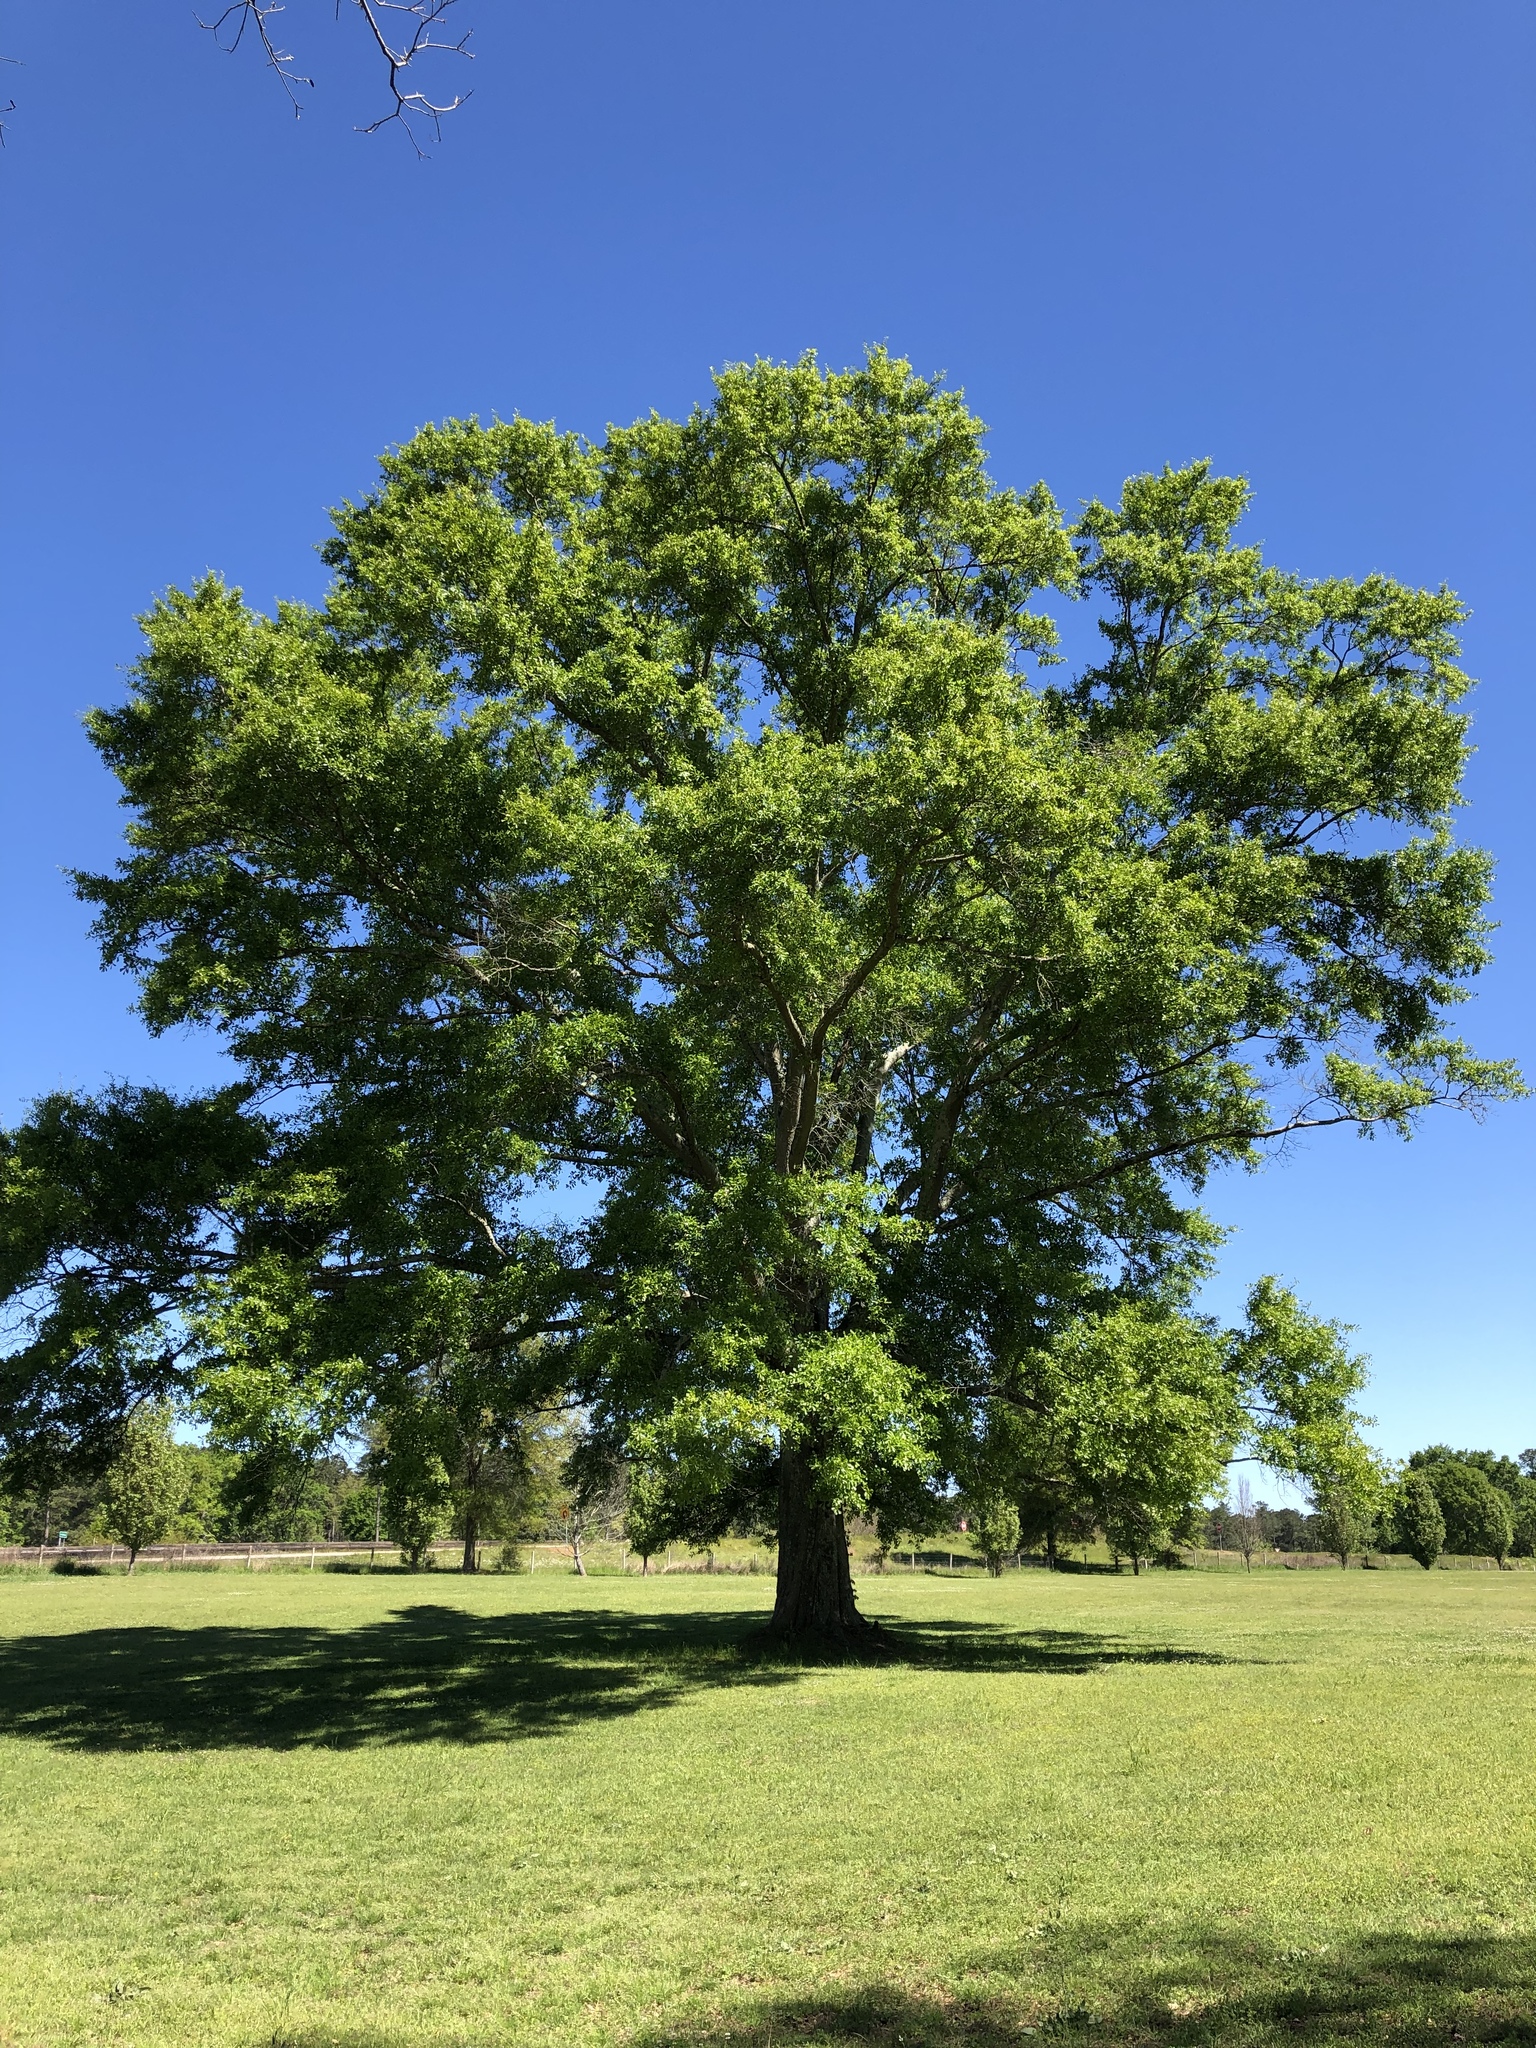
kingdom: Plantae
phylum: Tracheophyta
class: Magnoliopsida
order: Fagales
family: Fagaceae
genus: Quercus
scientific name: Quercus nigra
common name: Water oak
